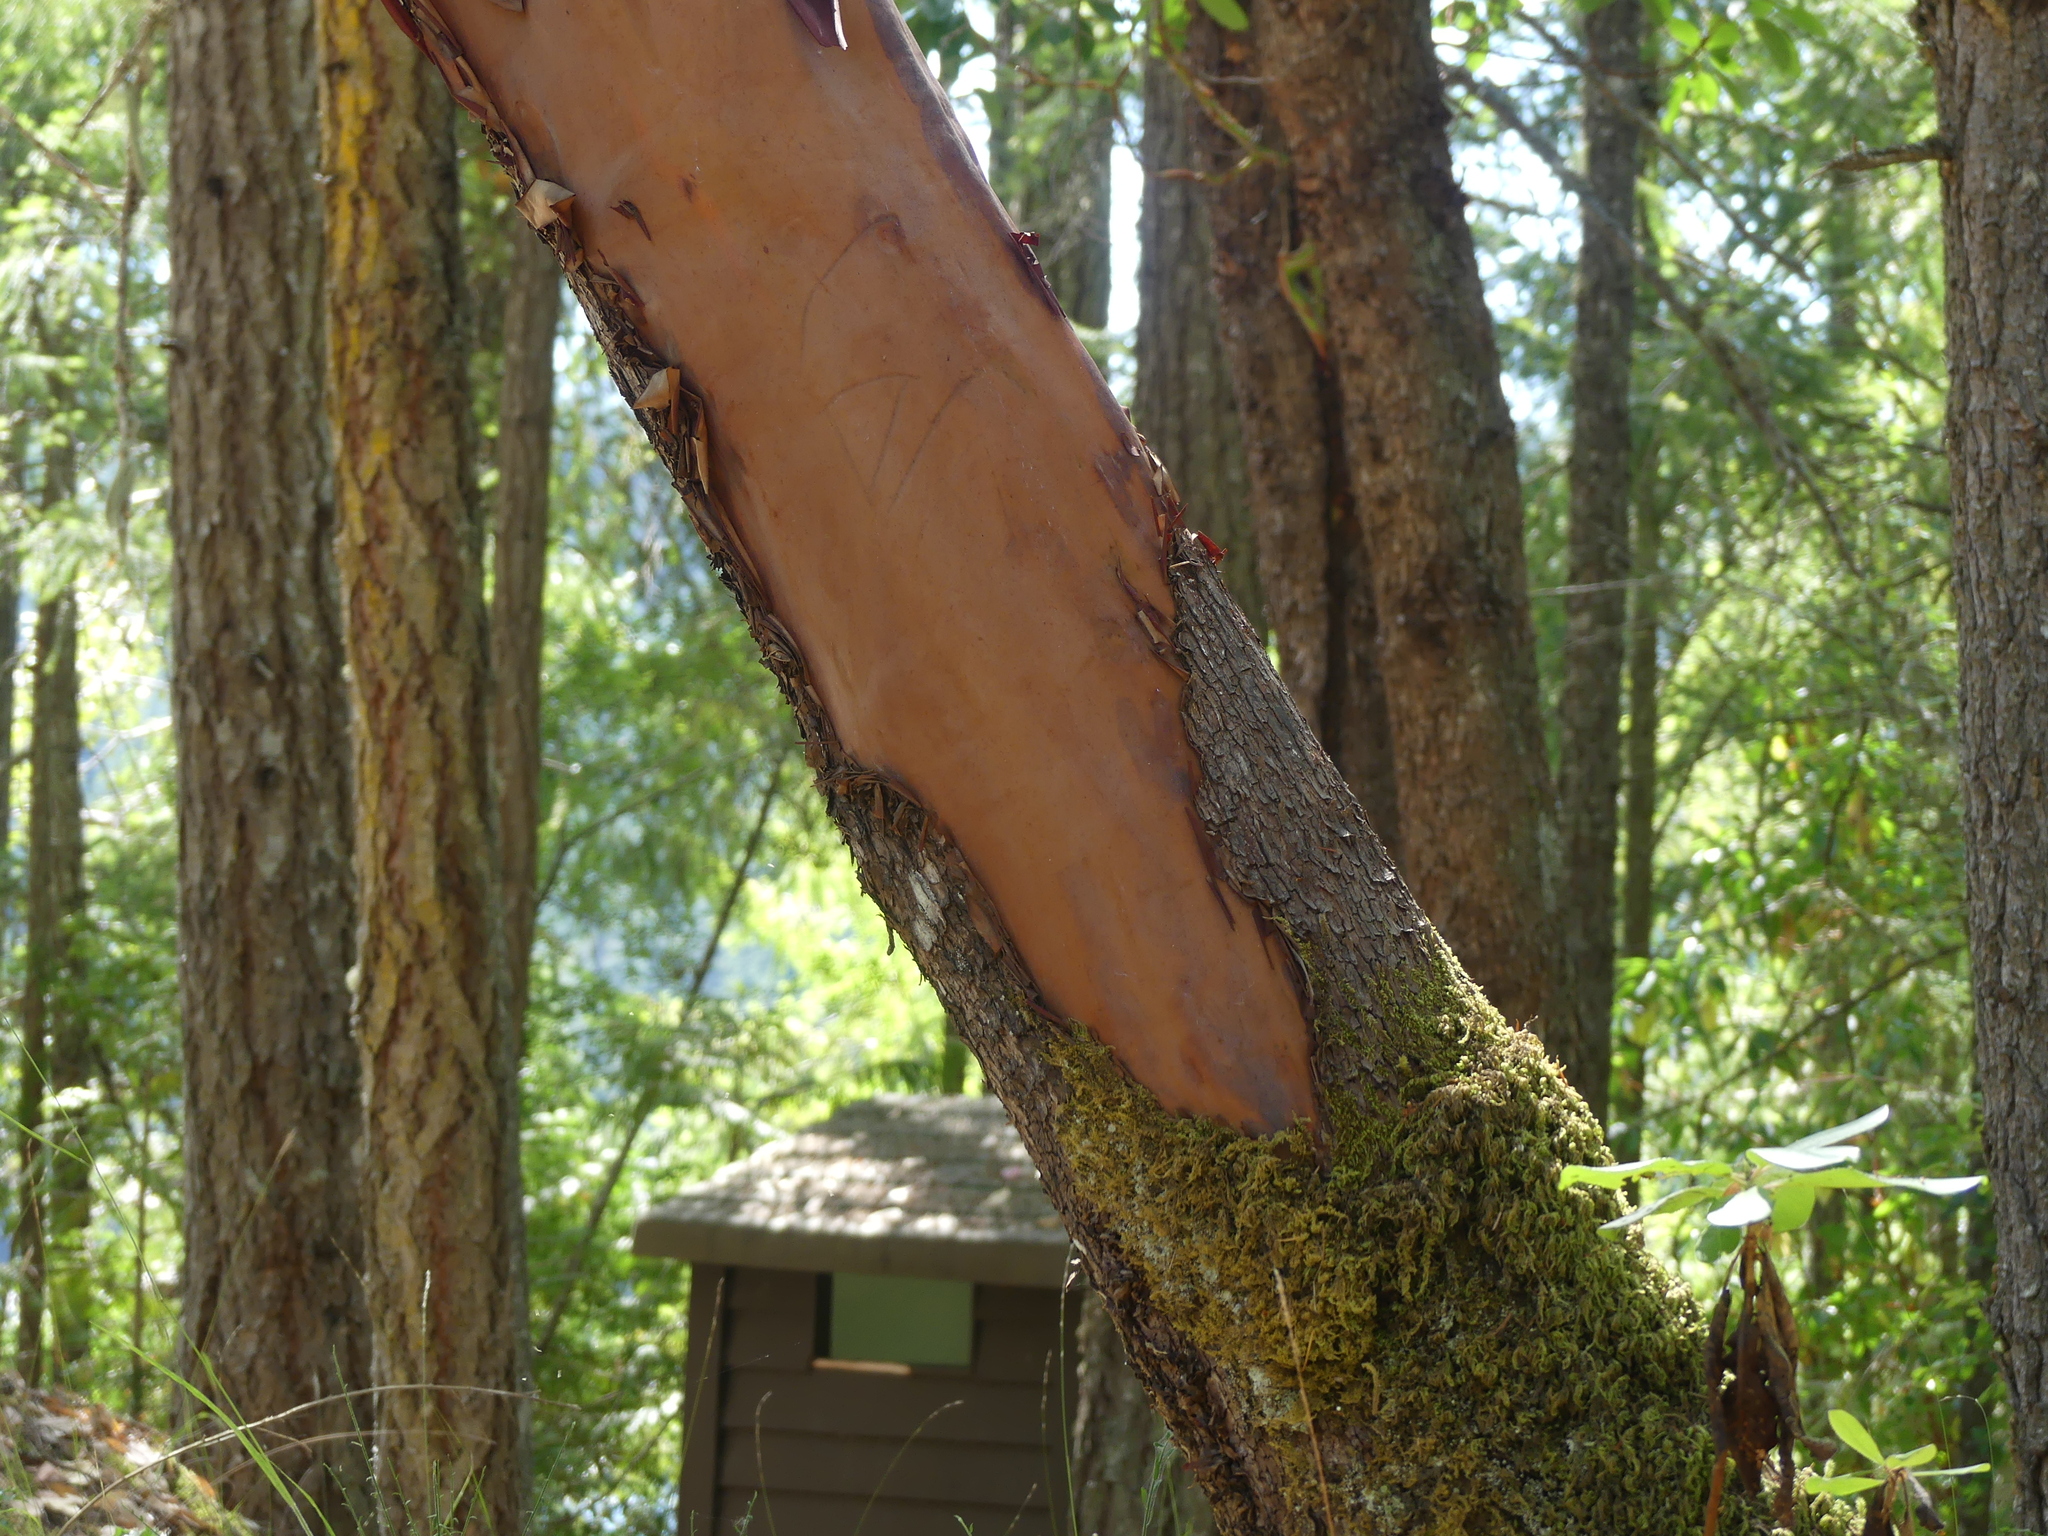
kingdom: Plantae
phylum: Tracheophyta
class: Magnoliopsida
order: Ericales
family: Ericaceae
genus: Arbutus
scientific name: Arbutus menziesii
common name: Pacific madrone
